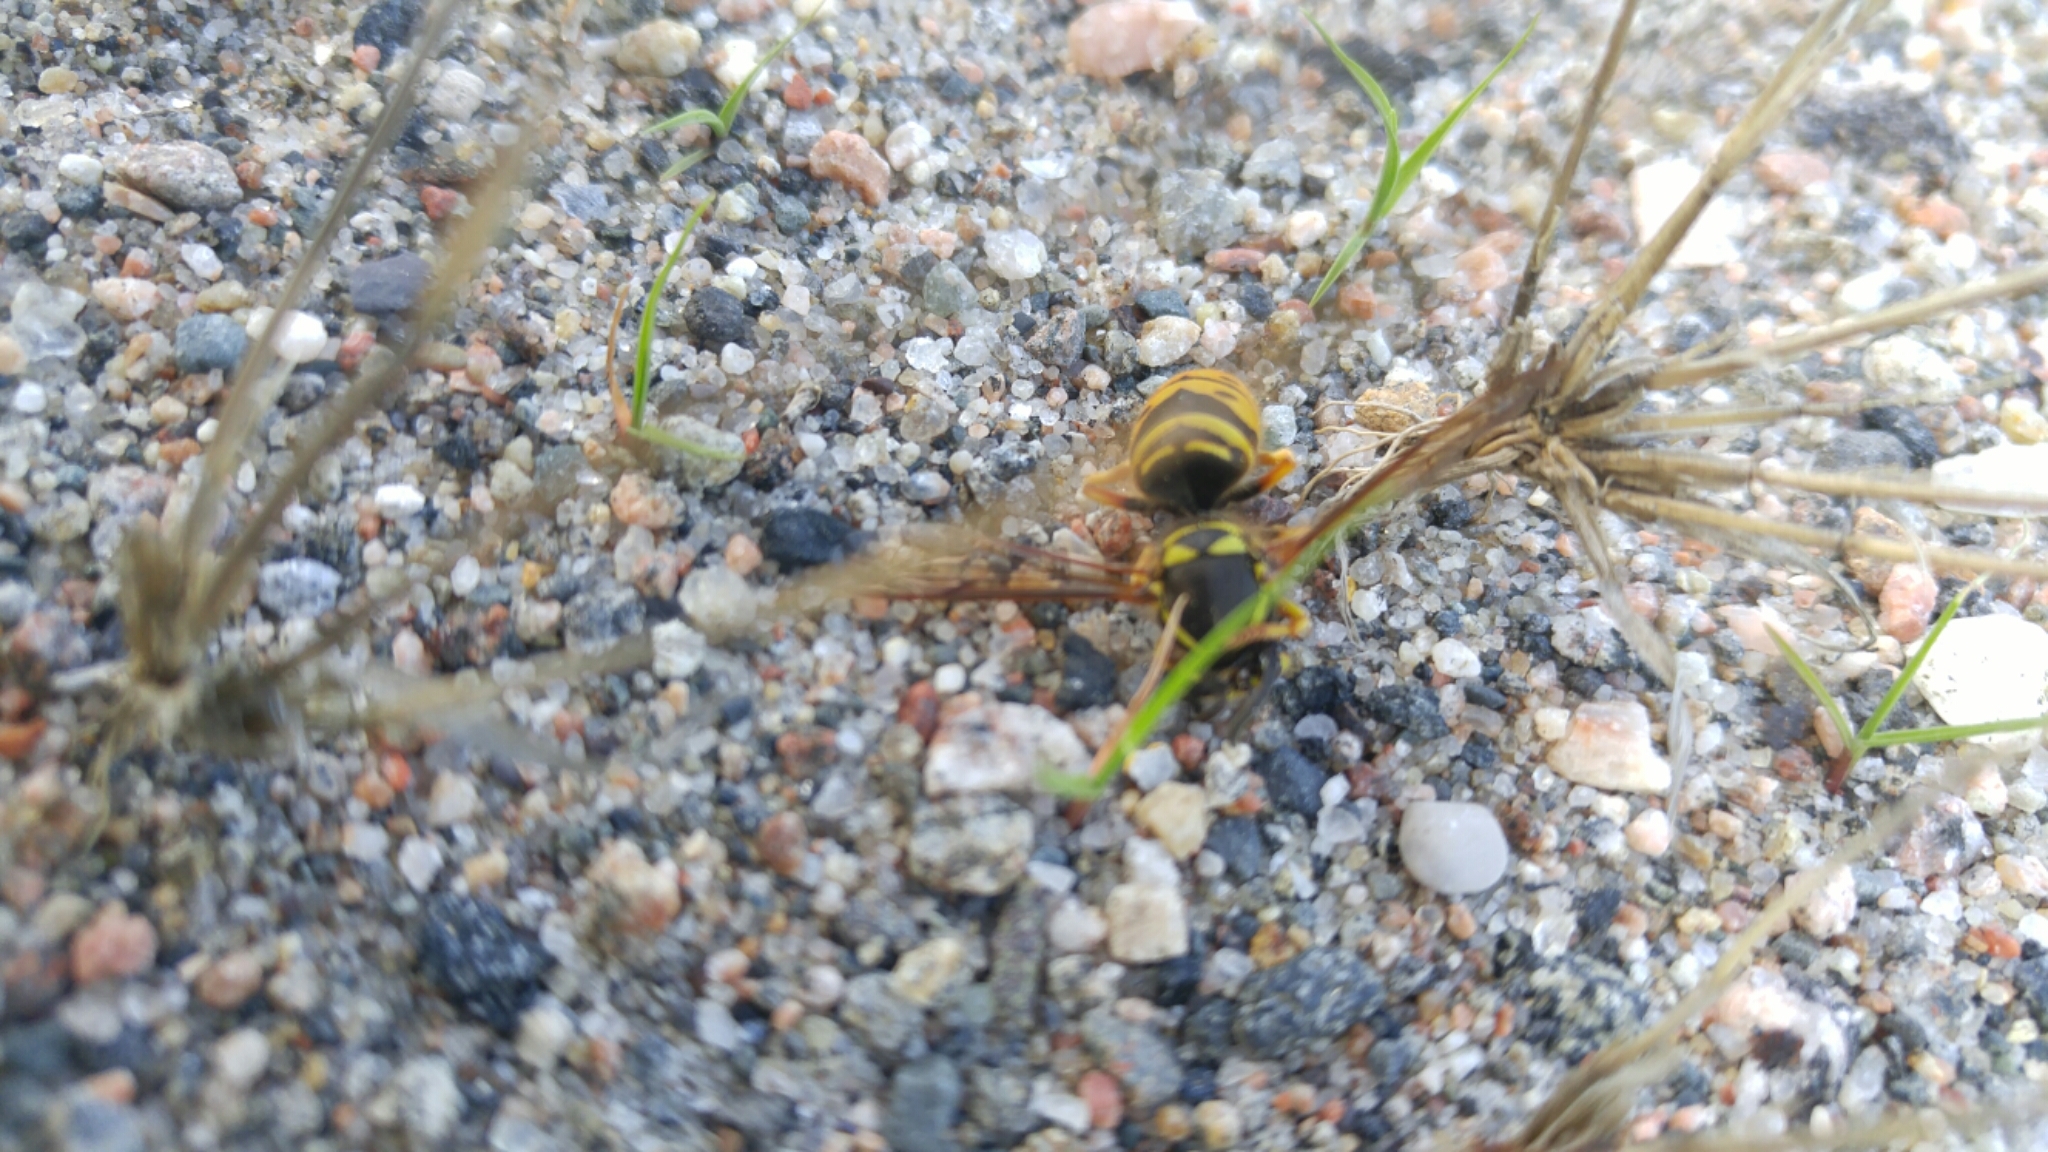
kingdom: Animalia
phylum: Arthropoda
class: Insecta
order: Hymenoptera
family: Vespidae
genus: Vespula
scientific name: Vespula maculifrons
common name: Eastern yellowjacket
